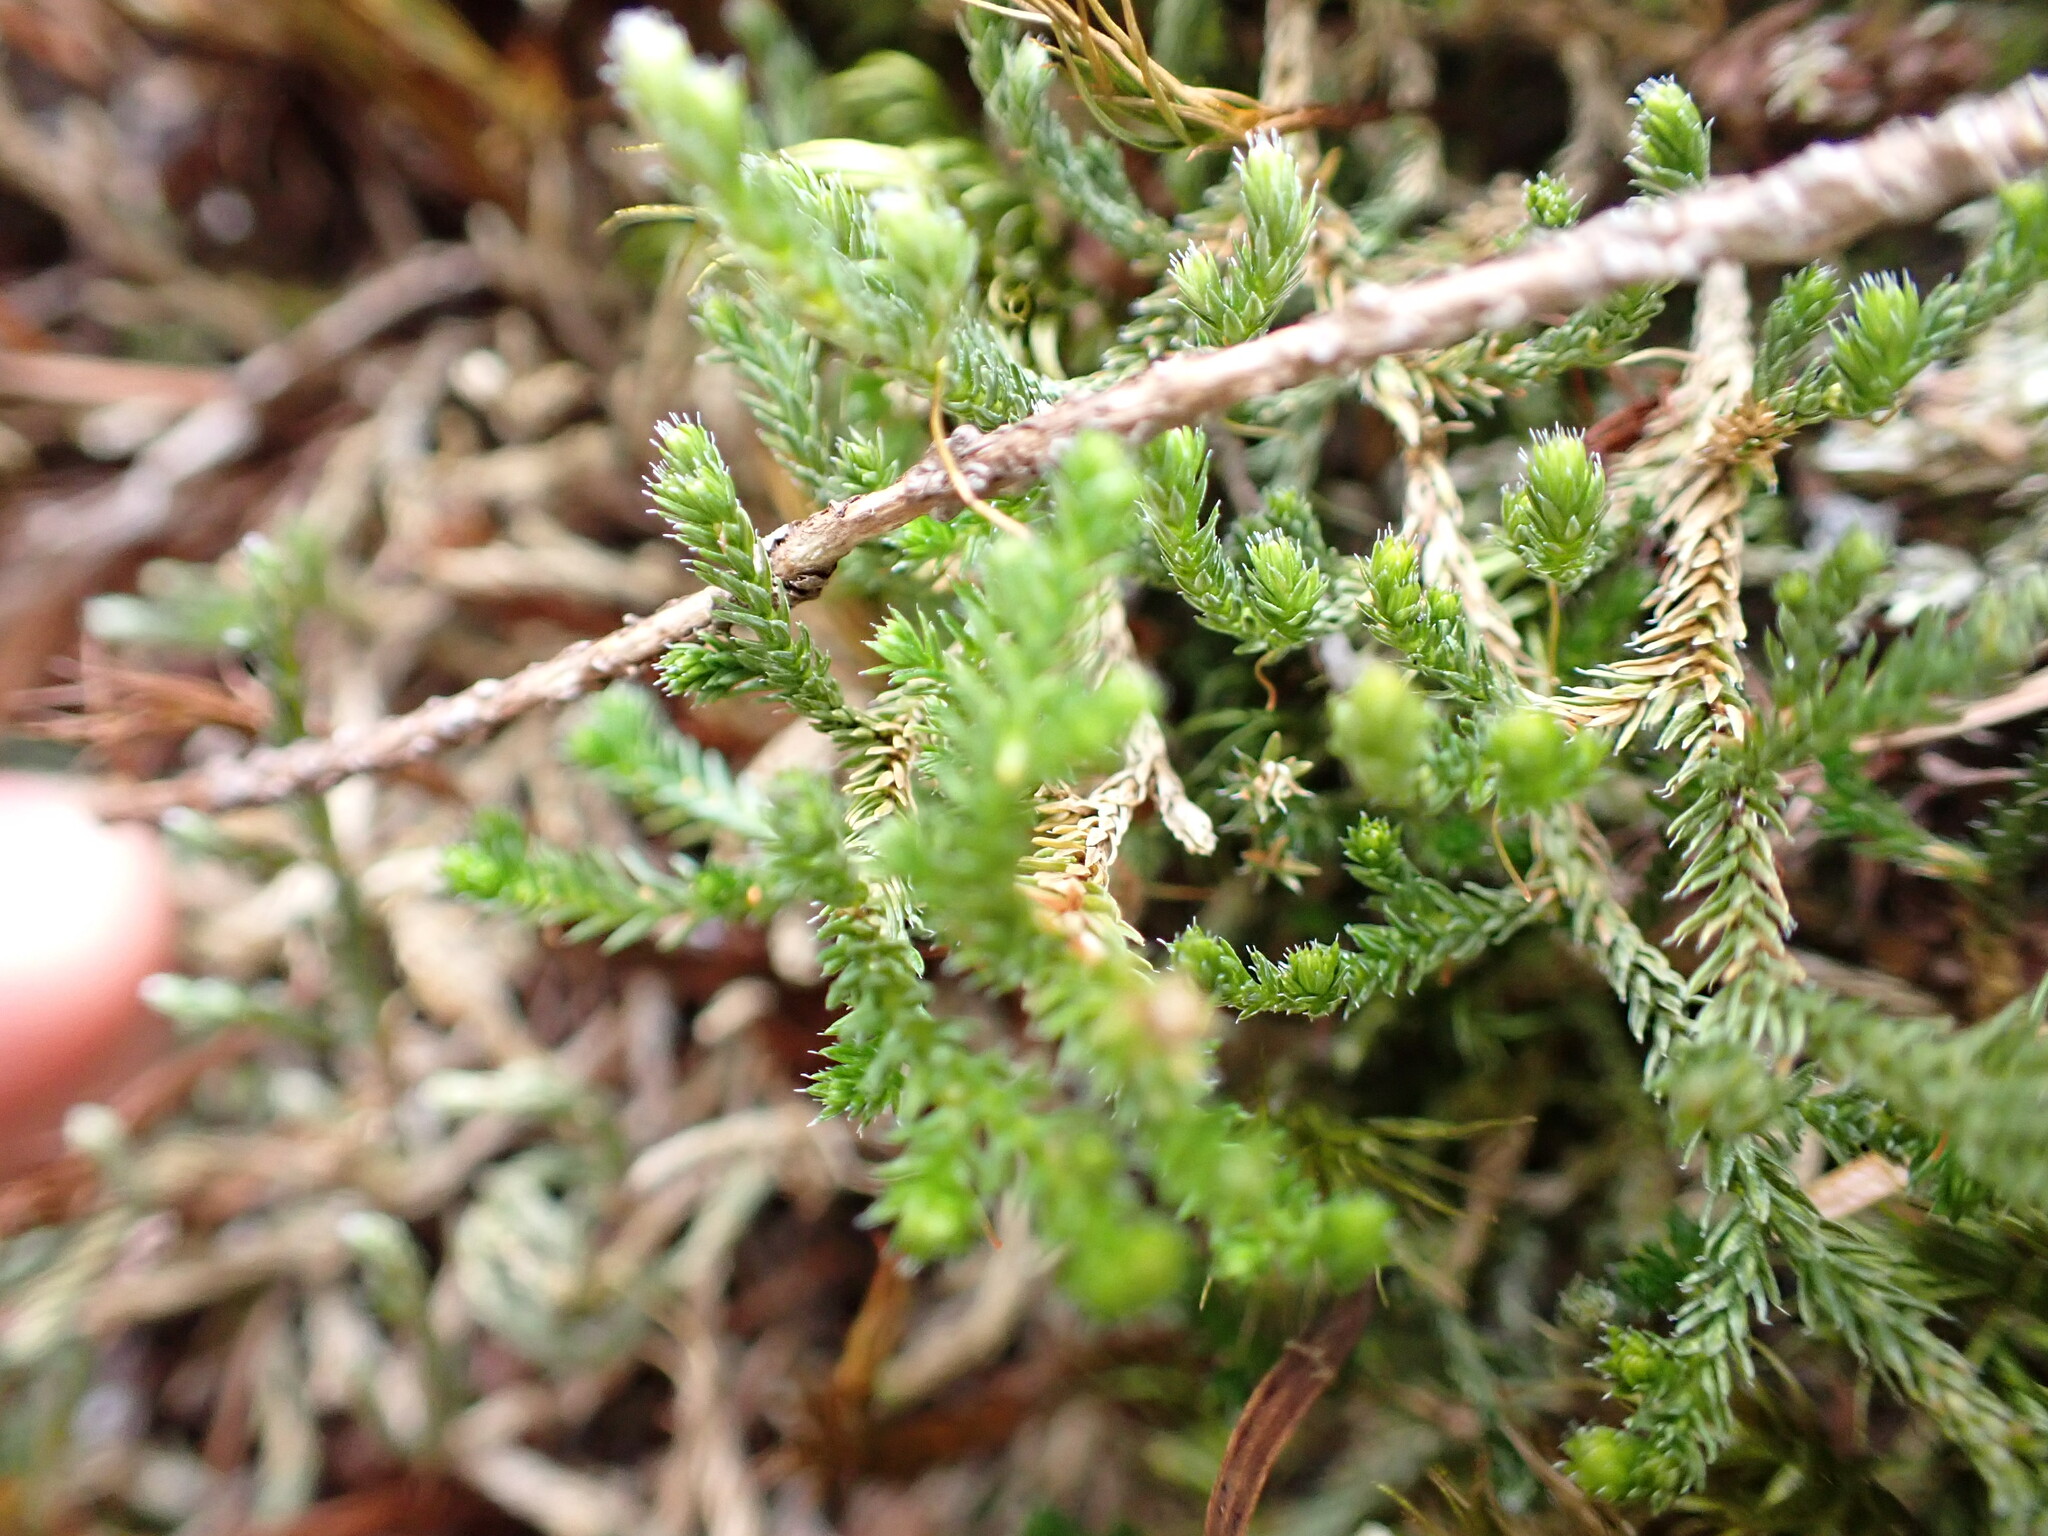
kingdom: Plantae
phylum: Tracheophyta
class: Lycopodiopsida
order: Selaginellales
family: Selaginellaceae
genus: Selaginella
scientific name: Selaginella wallacei
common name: Wallace's selaginella
